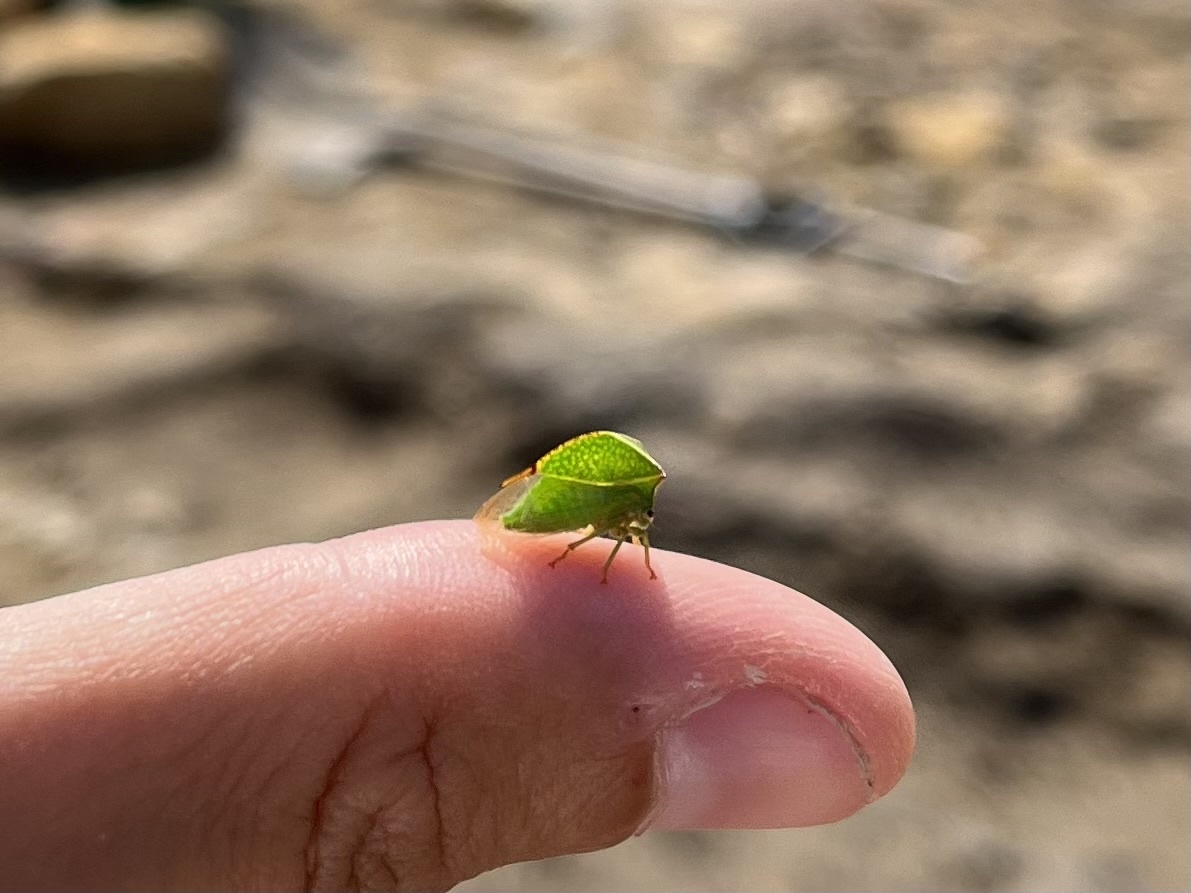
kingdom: Animalia
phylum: Arthropoda
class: Insecta
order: Hemiptera
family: Membracidae
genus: Stictocephala
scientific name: Stictocephala bisonia
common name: American buffalo treehopper
